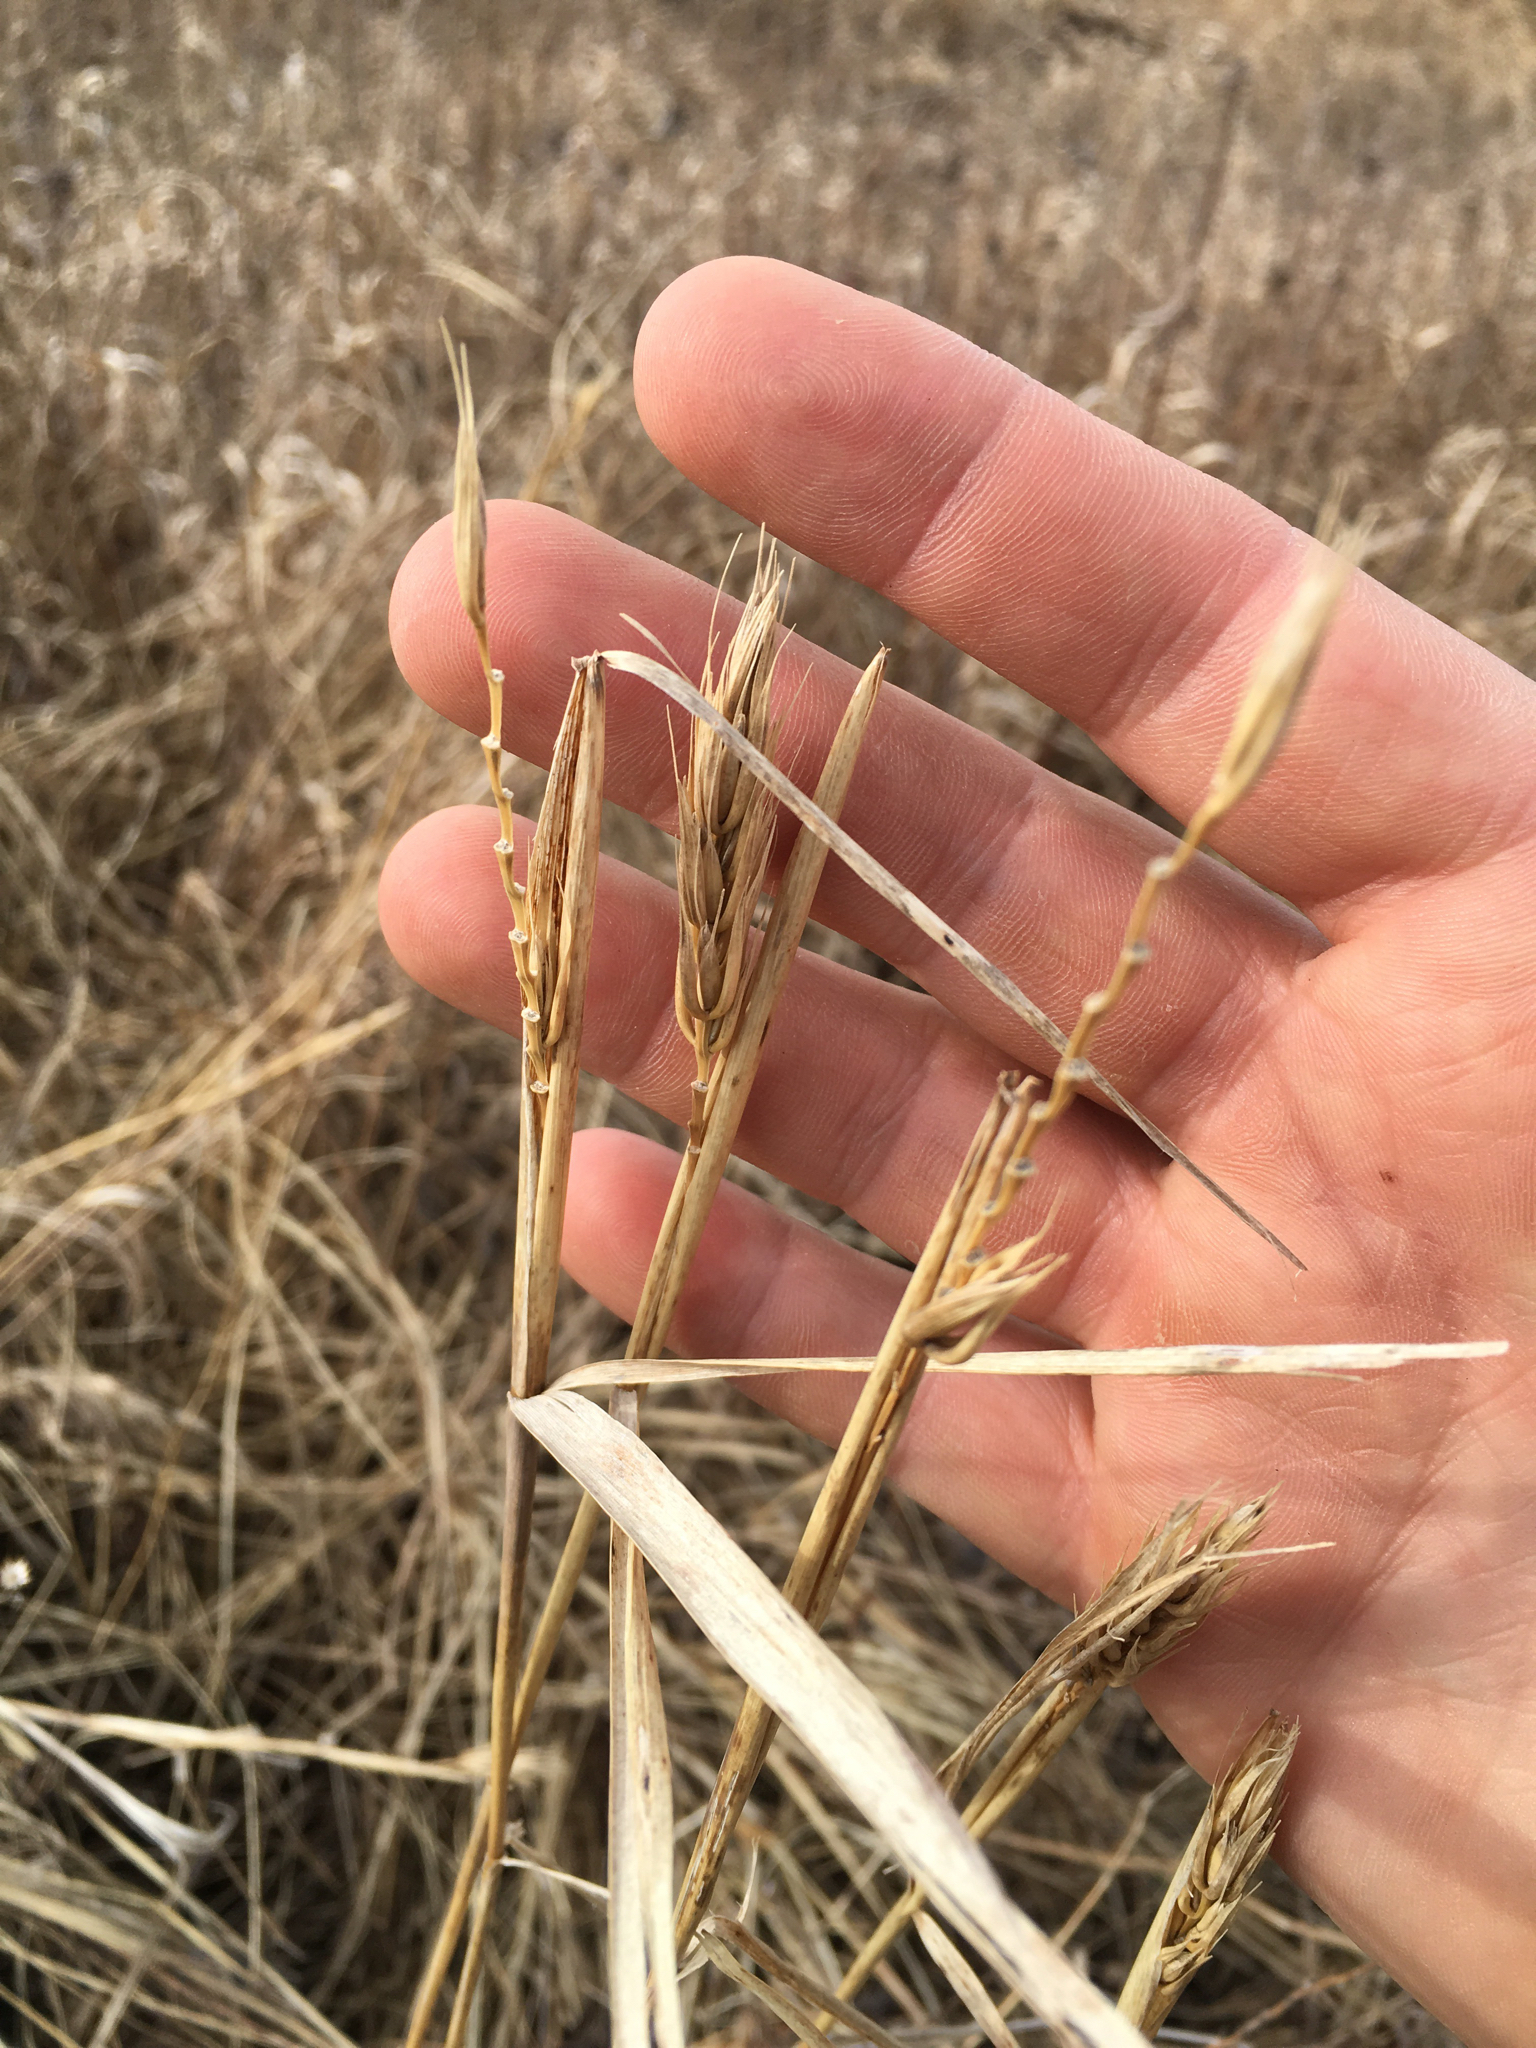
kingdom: Plantae
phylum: Tracheophyta
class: Liliopsida
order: Poales
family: Poaceae
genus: Elymus
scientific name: Elymus virginicus
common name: Common eastern wildrye
